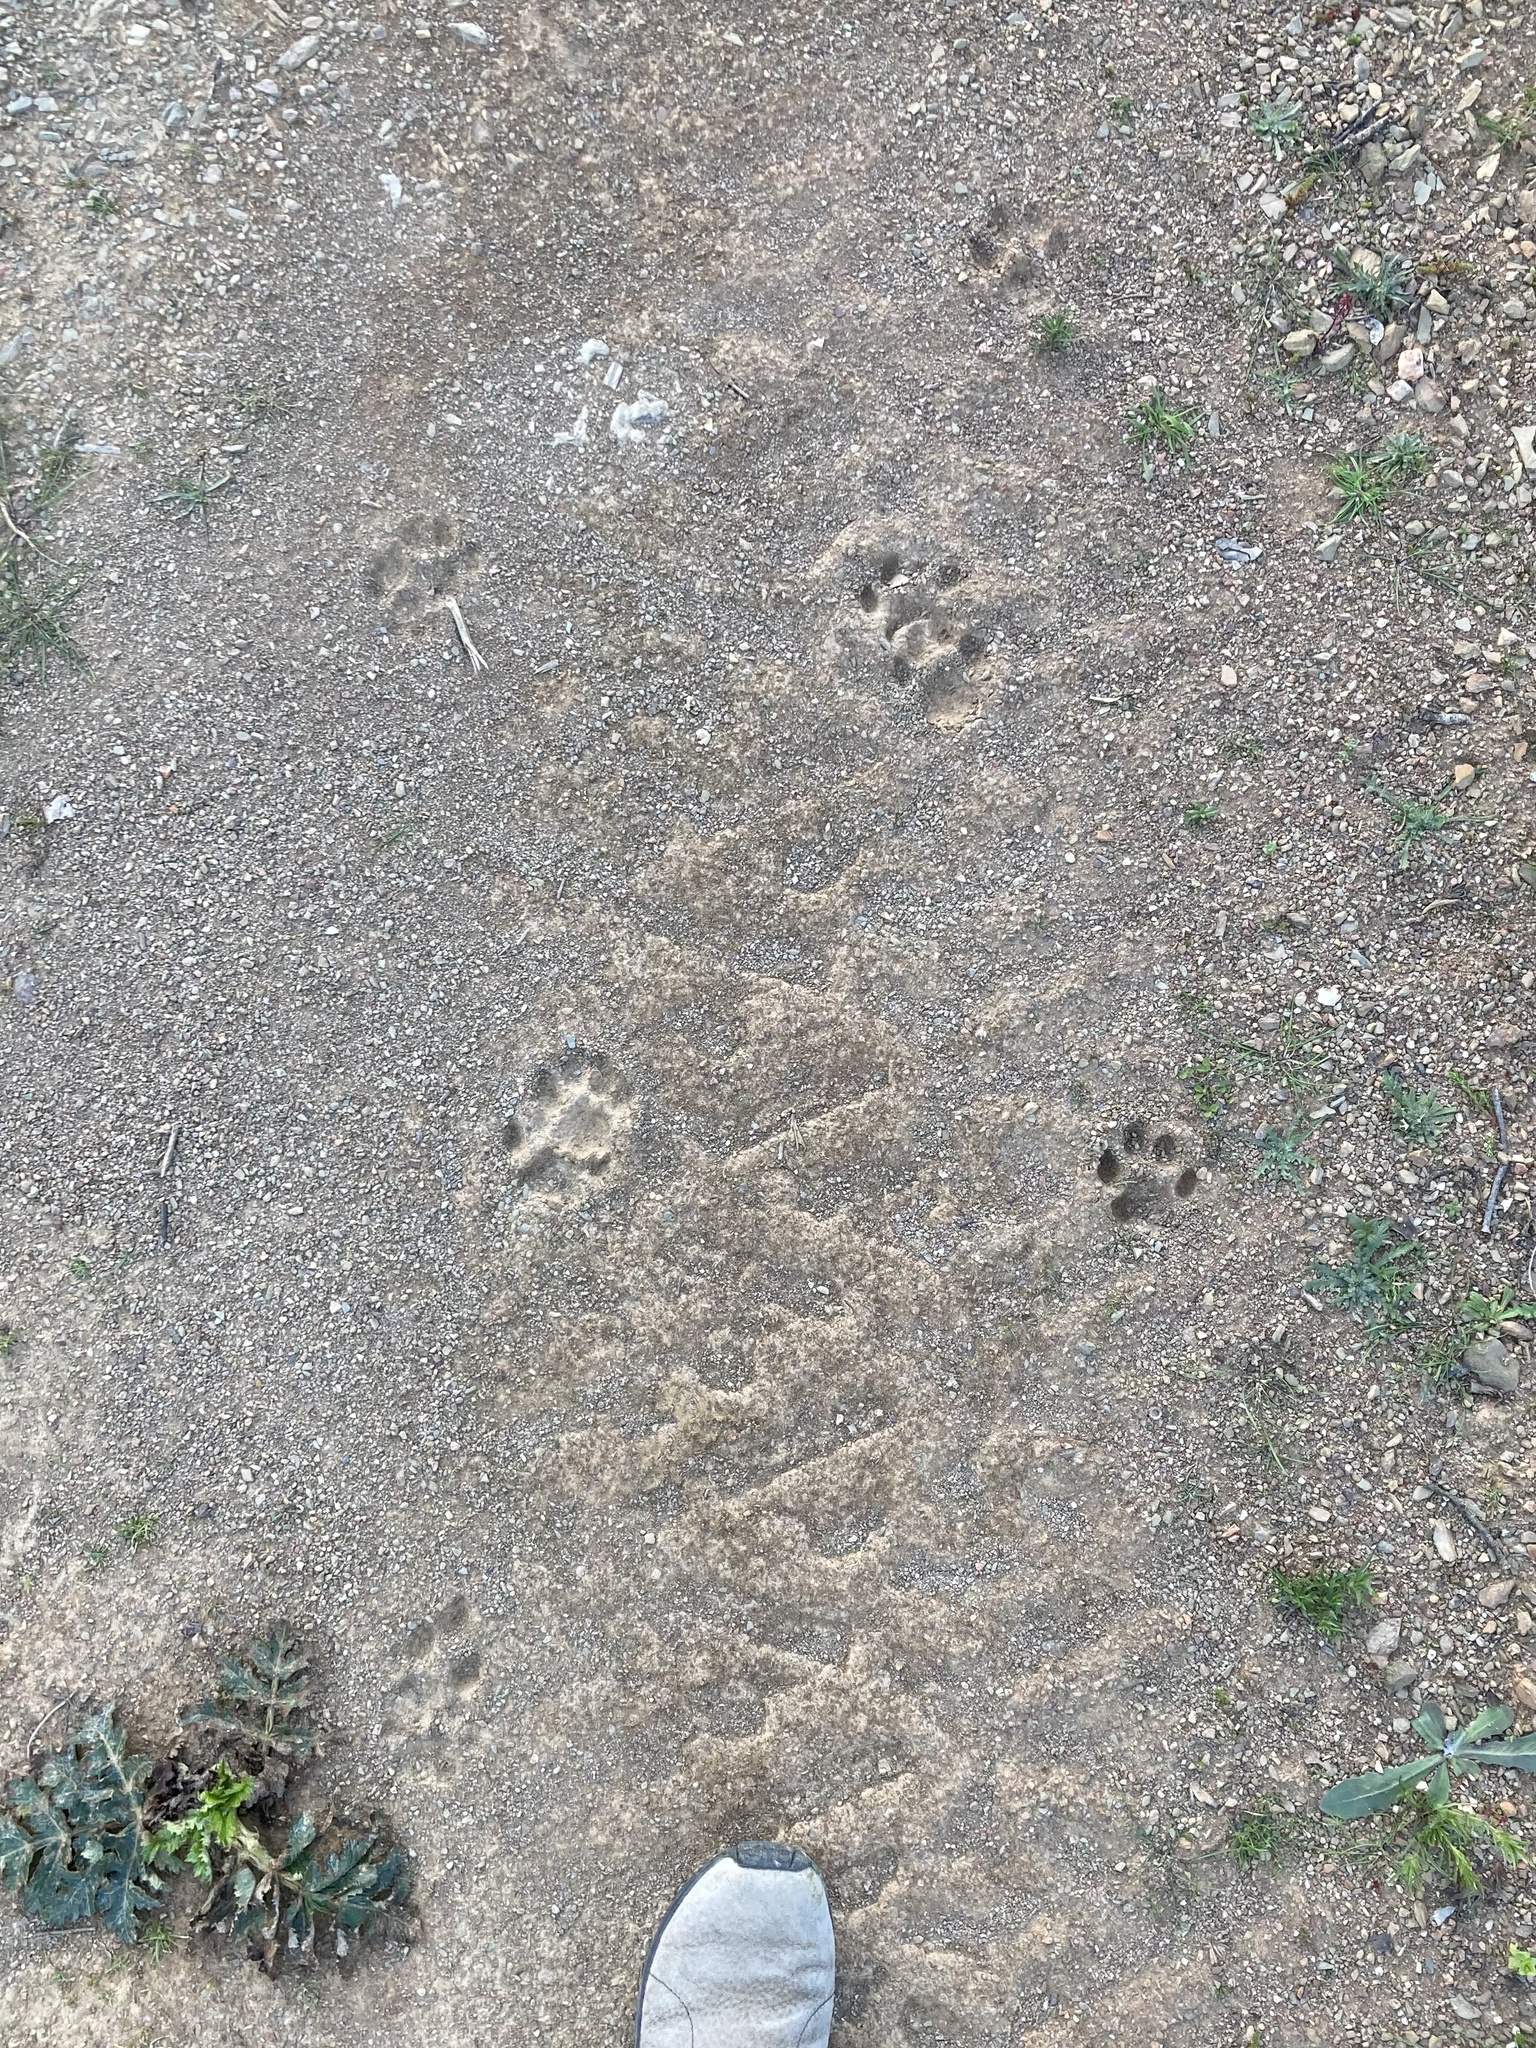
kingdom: Animalia
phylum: Chordata
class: Mammalia
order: Carnivora
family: Felidae
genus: Lynx
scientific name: Lynx pardinus
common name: Spanish lynx
